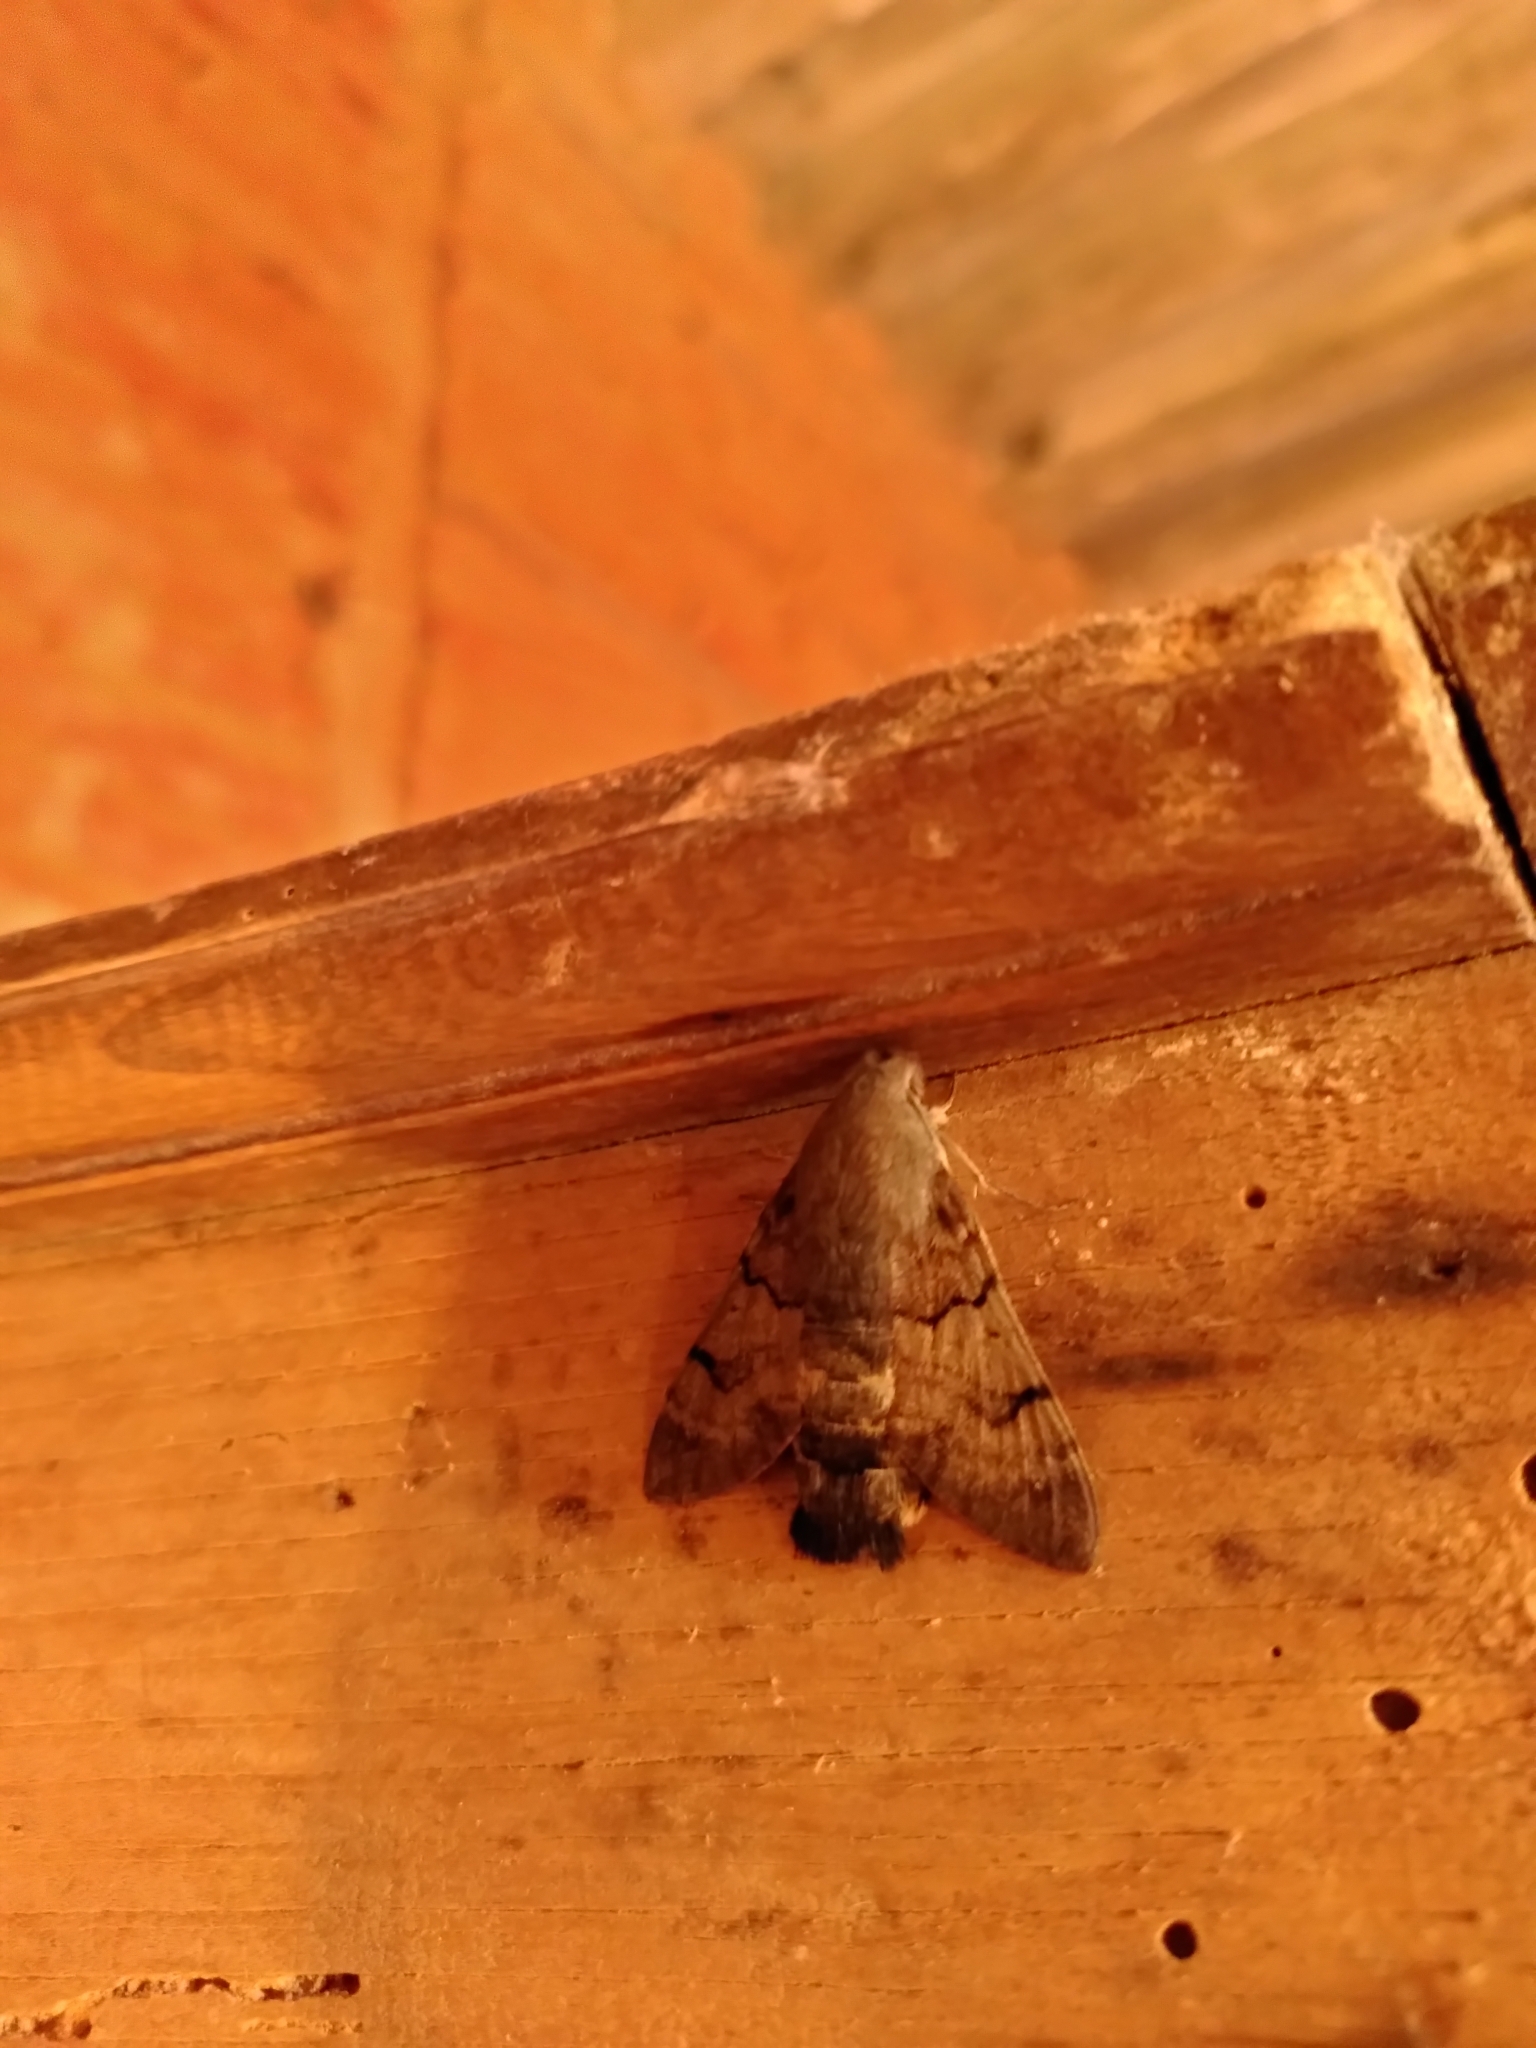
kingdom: Animalia
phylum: Arthropoda
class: Insecta
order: Lepidoptera
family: Sphingidae
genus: Macroglossum
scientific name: Macroglossum stellatarum
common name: Humming-bird hawk-moth
